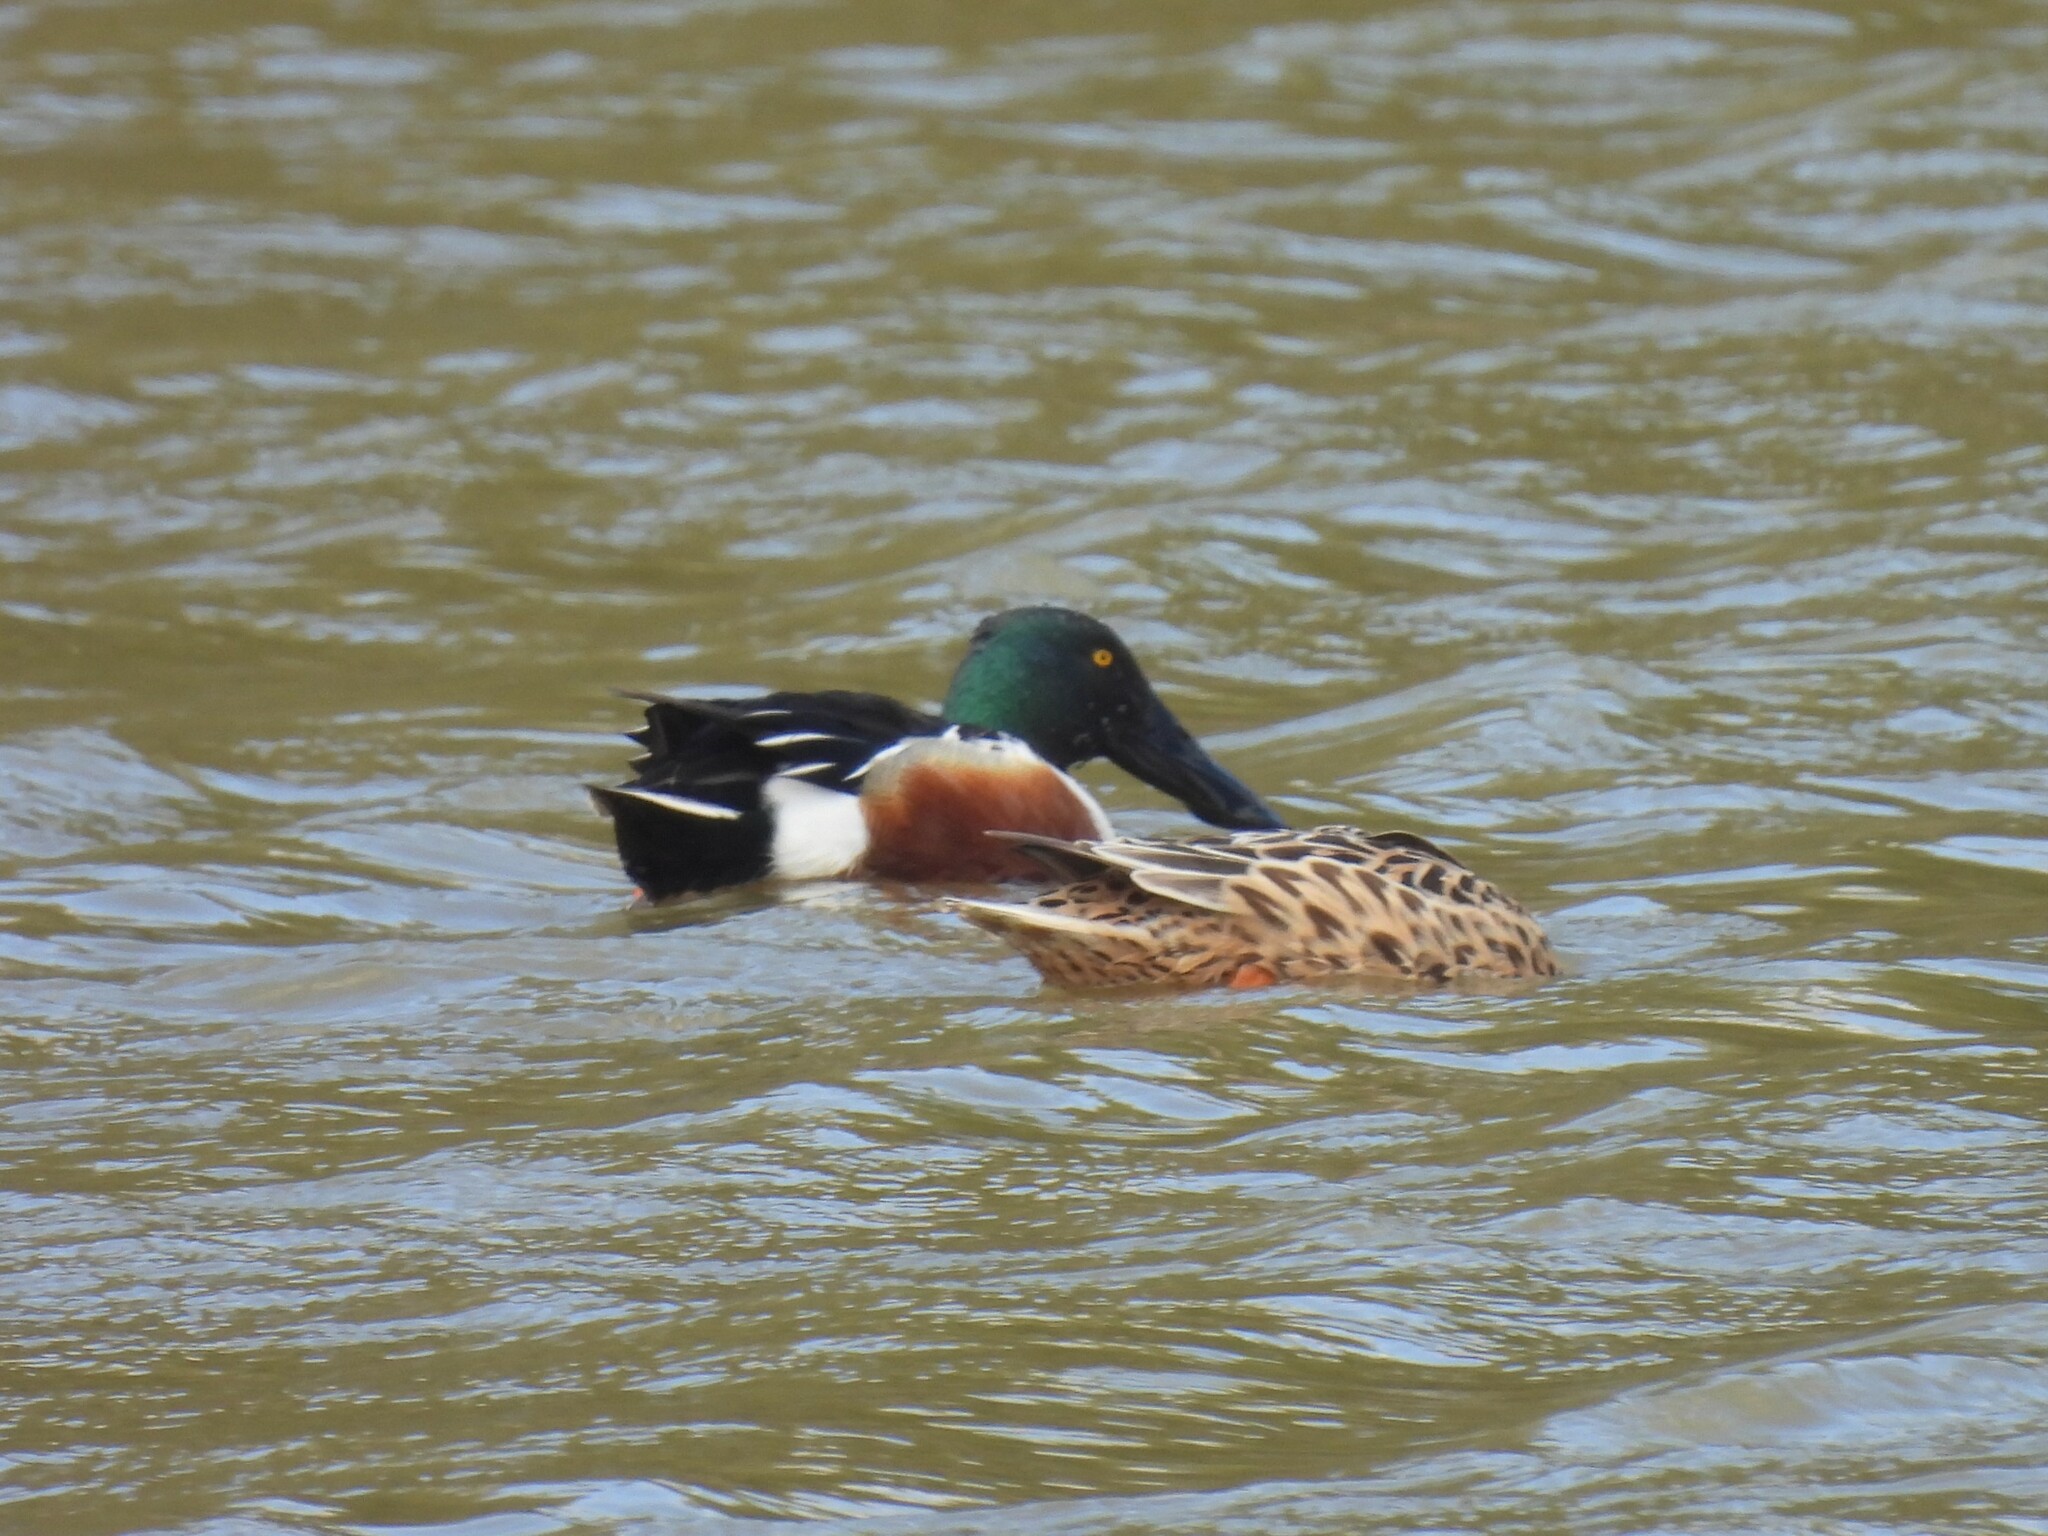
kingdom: Animalia
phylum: Chordata
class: Aves
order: Anseriformes
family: Anatidae
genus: Spatula
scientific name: Spatula clypeata
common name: Northern shoveler
